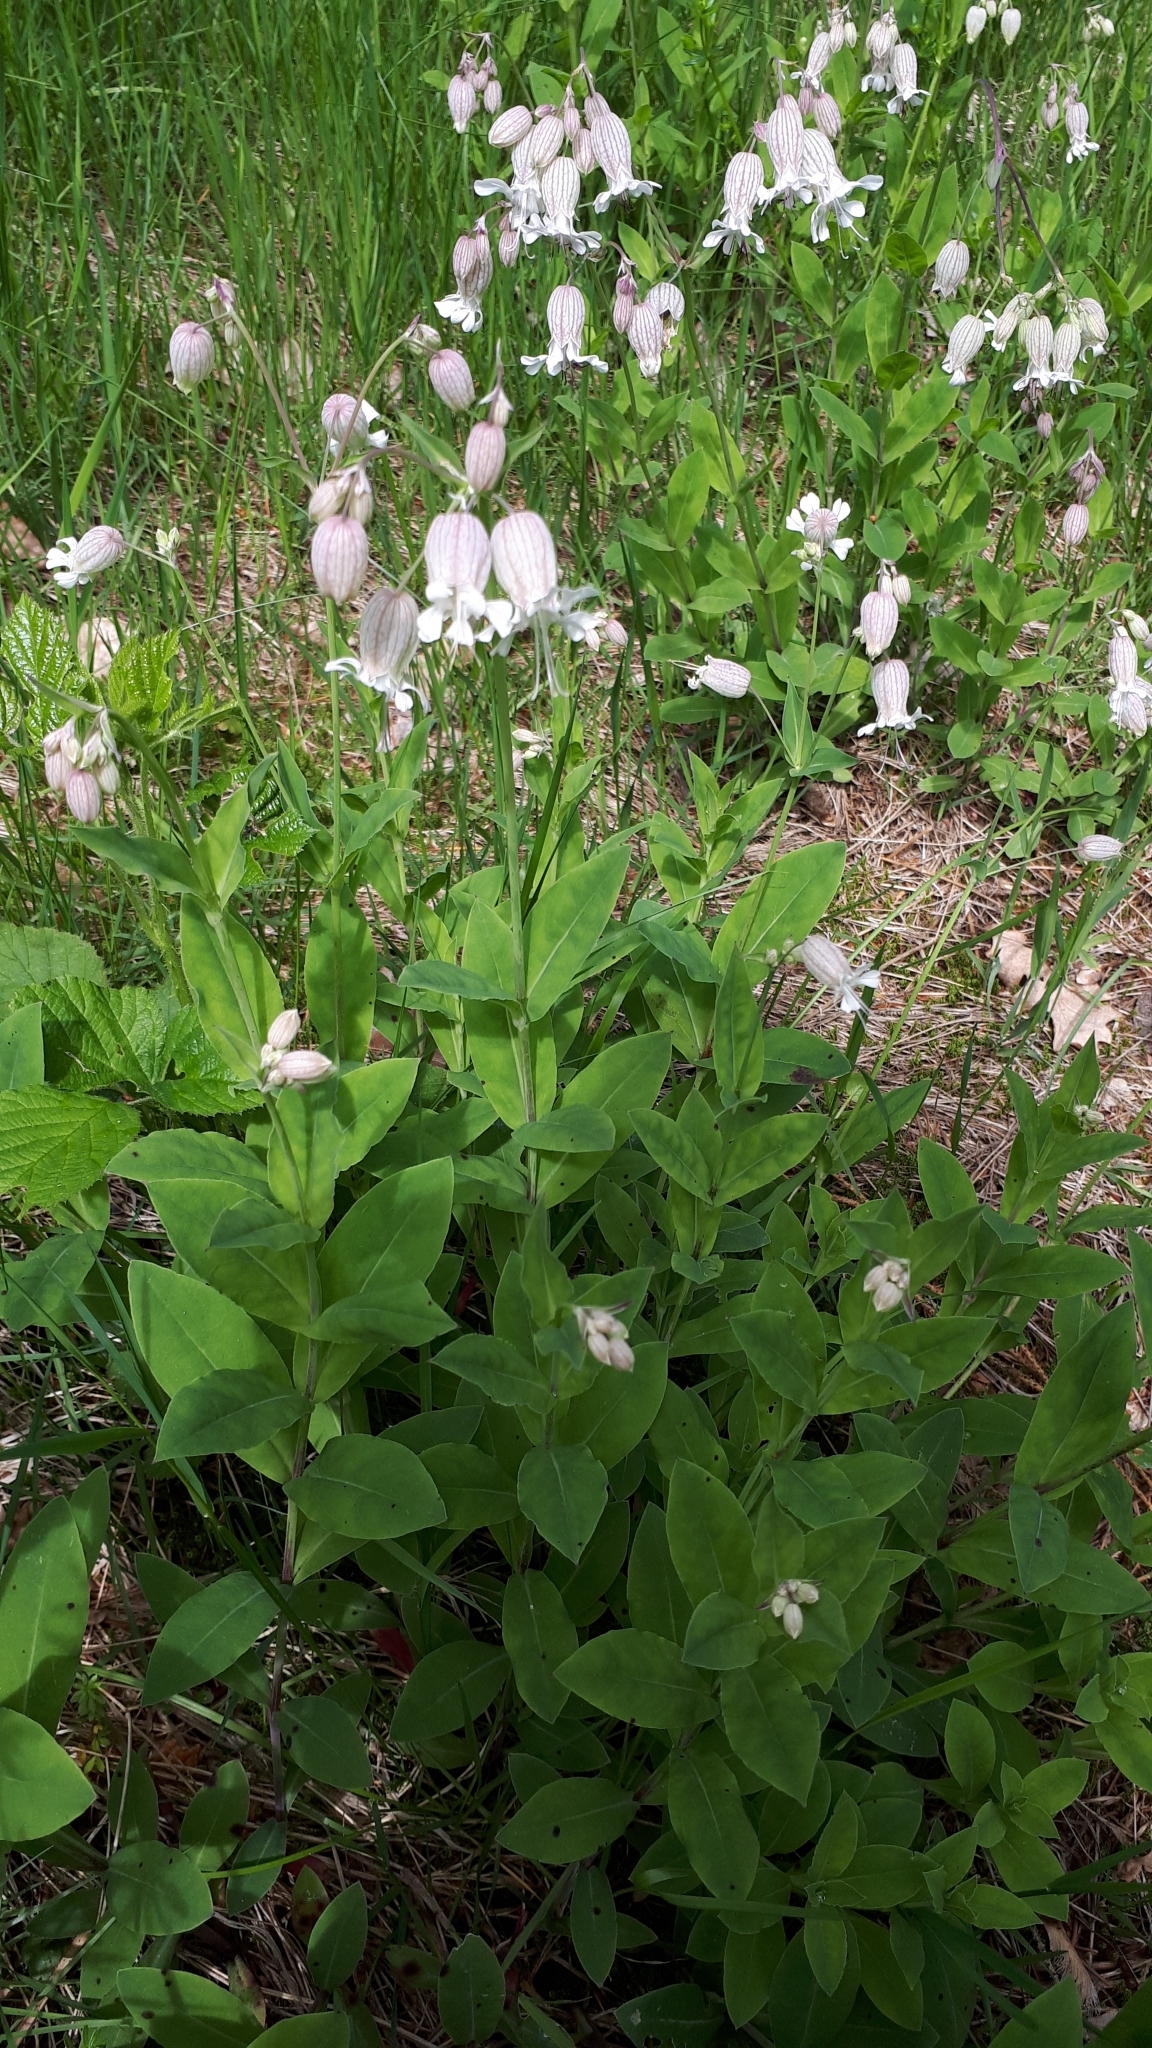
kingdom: Plantae
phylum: Tracheophyta
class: Magnoliopsida
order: Caryophyllales
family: Caryophyllaceae
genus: Silene
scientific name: Silene vulgaris
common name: Bladder campion
